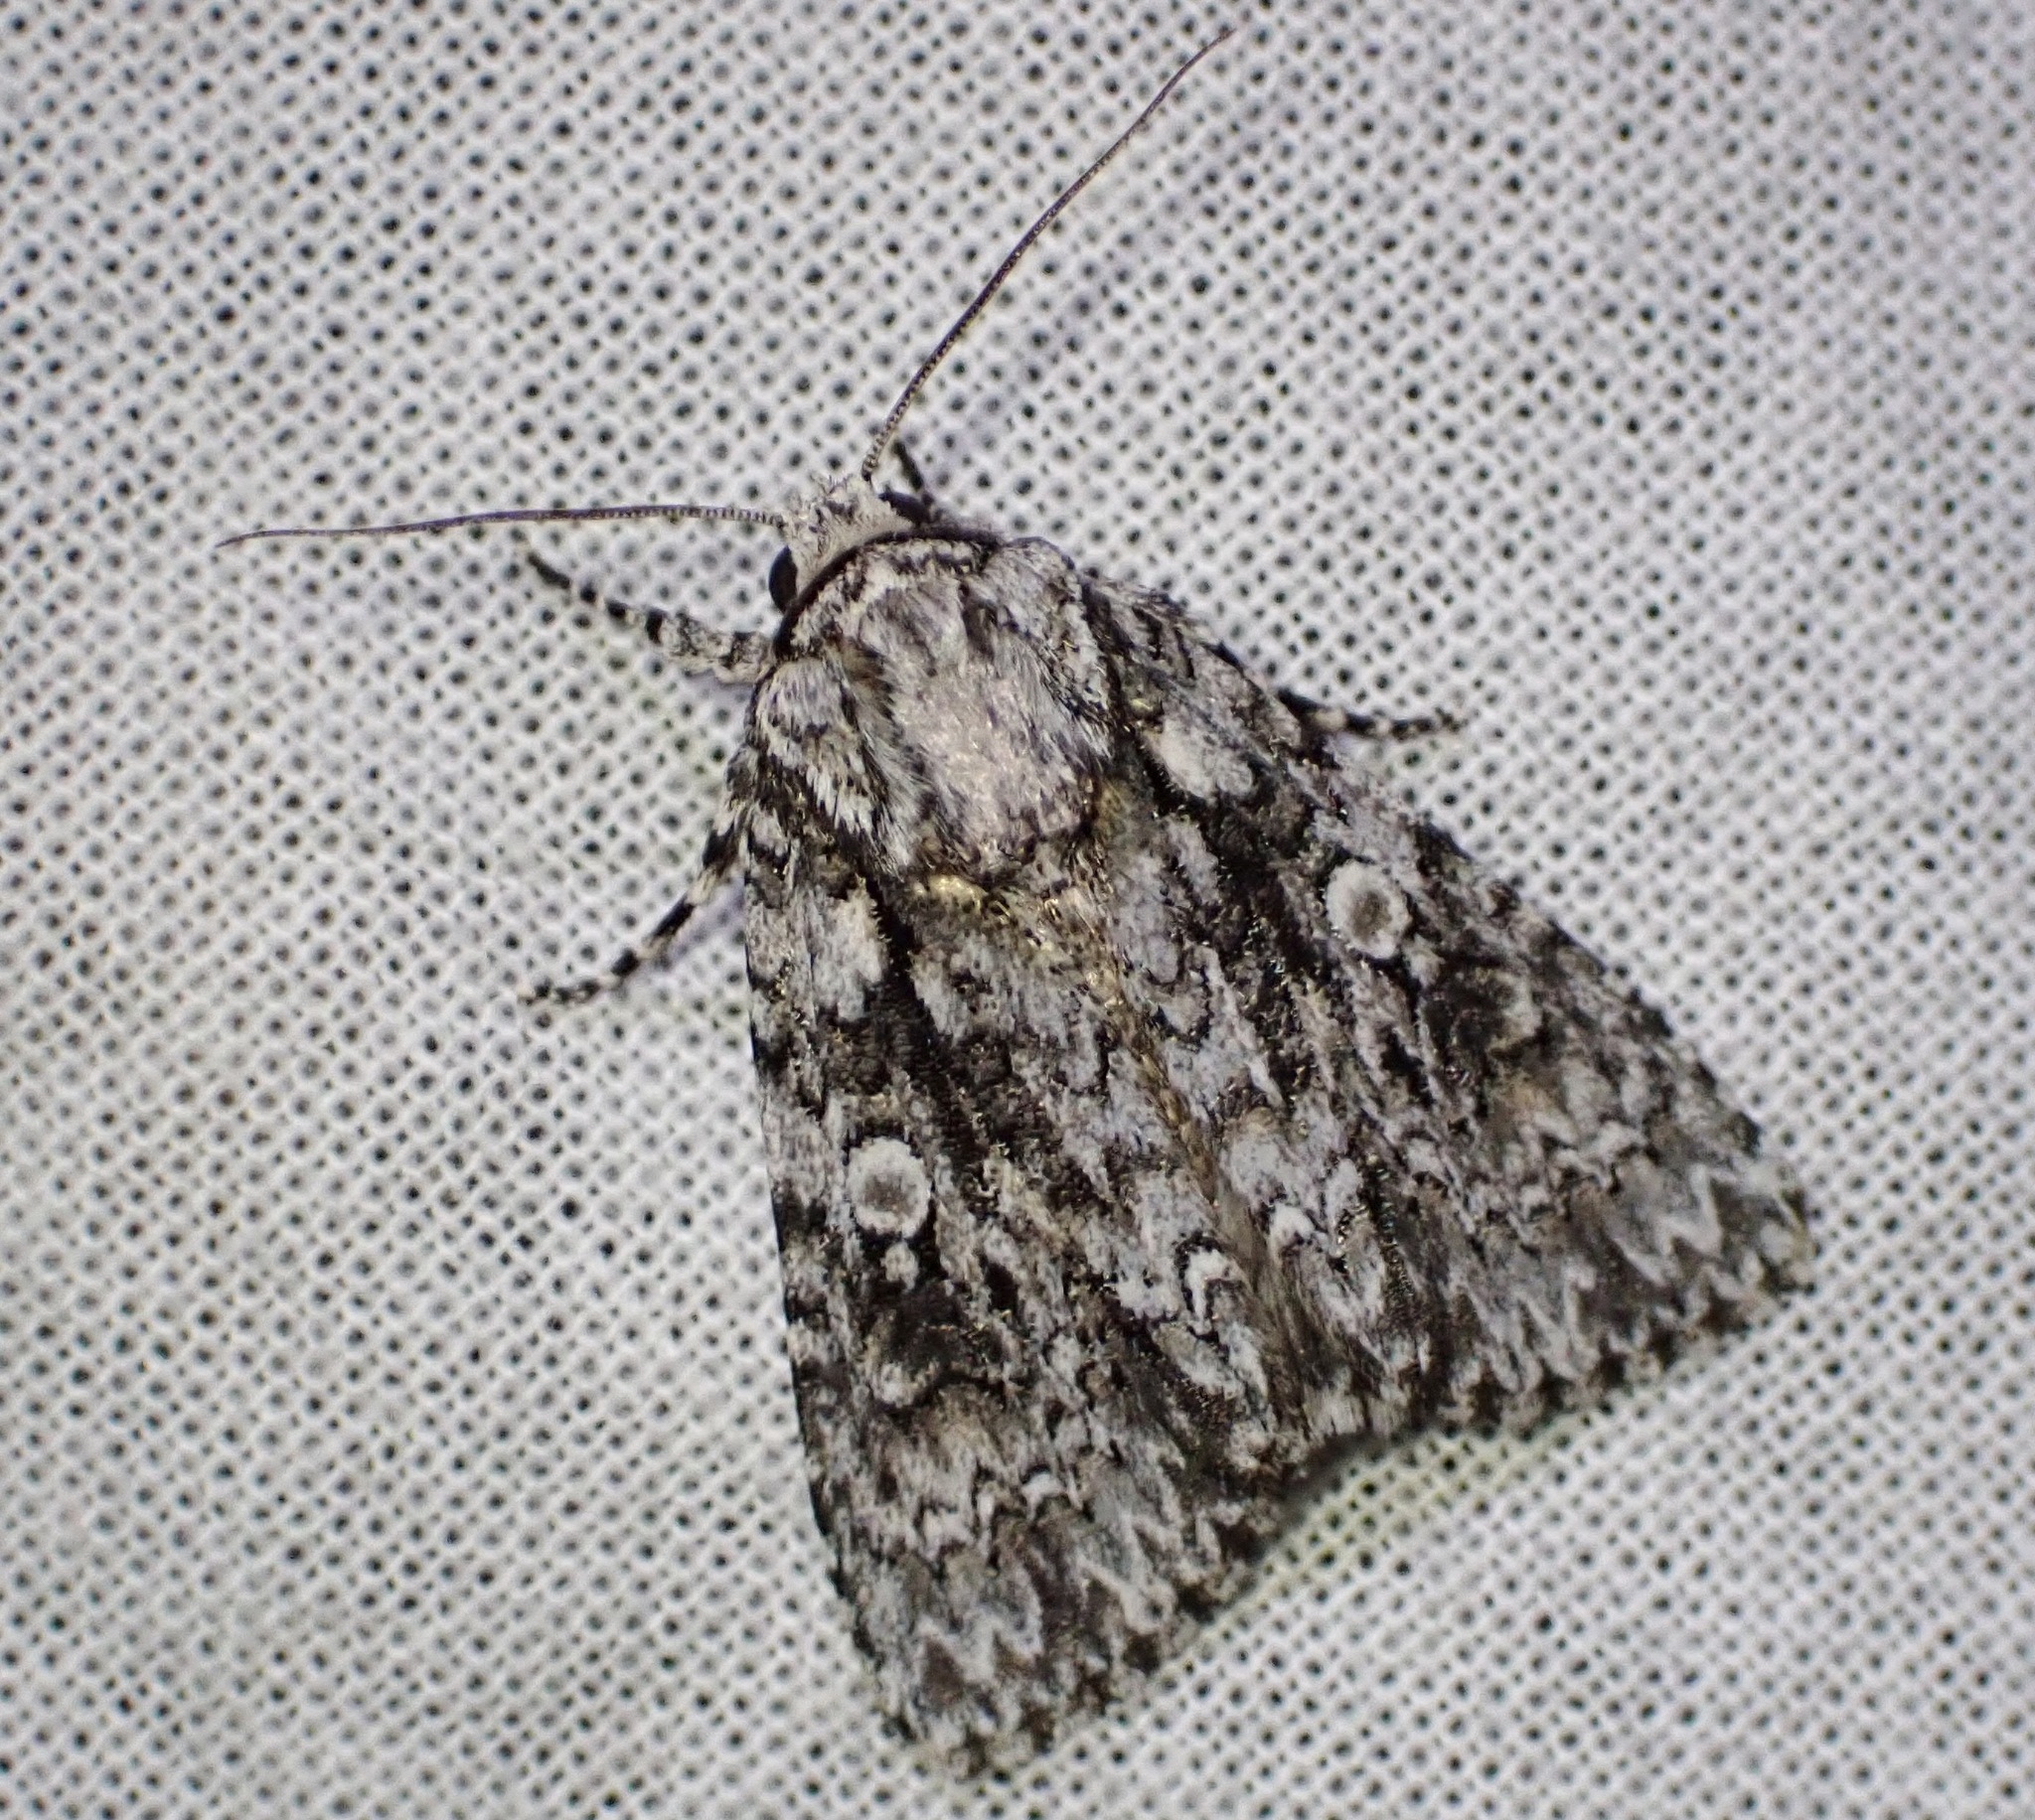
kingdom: Animalia
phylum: Arthropoda
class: Insecta
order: Lepidoptera
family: Noctuidae
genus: Acronicta
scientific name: Acronicta marmorata
